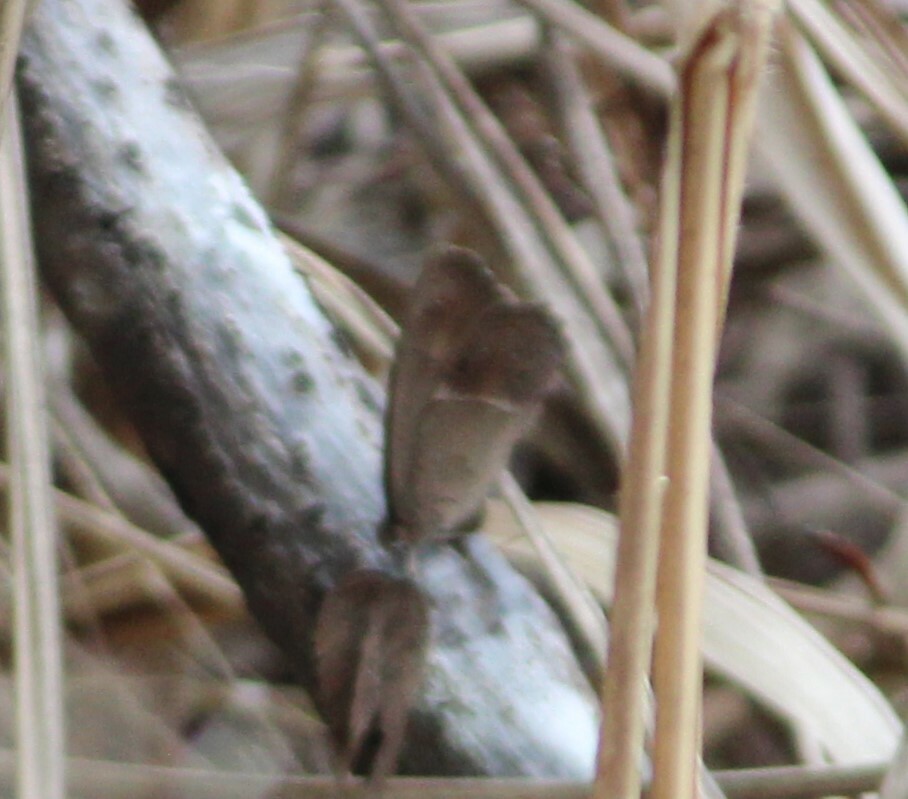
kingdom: Animalia
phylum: Arthropoda
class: Insecta
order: Lepidoptera
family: Nymphalidae
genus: Mycalesis
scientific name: Mycalesis perseus
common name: Dingy bushbrown
